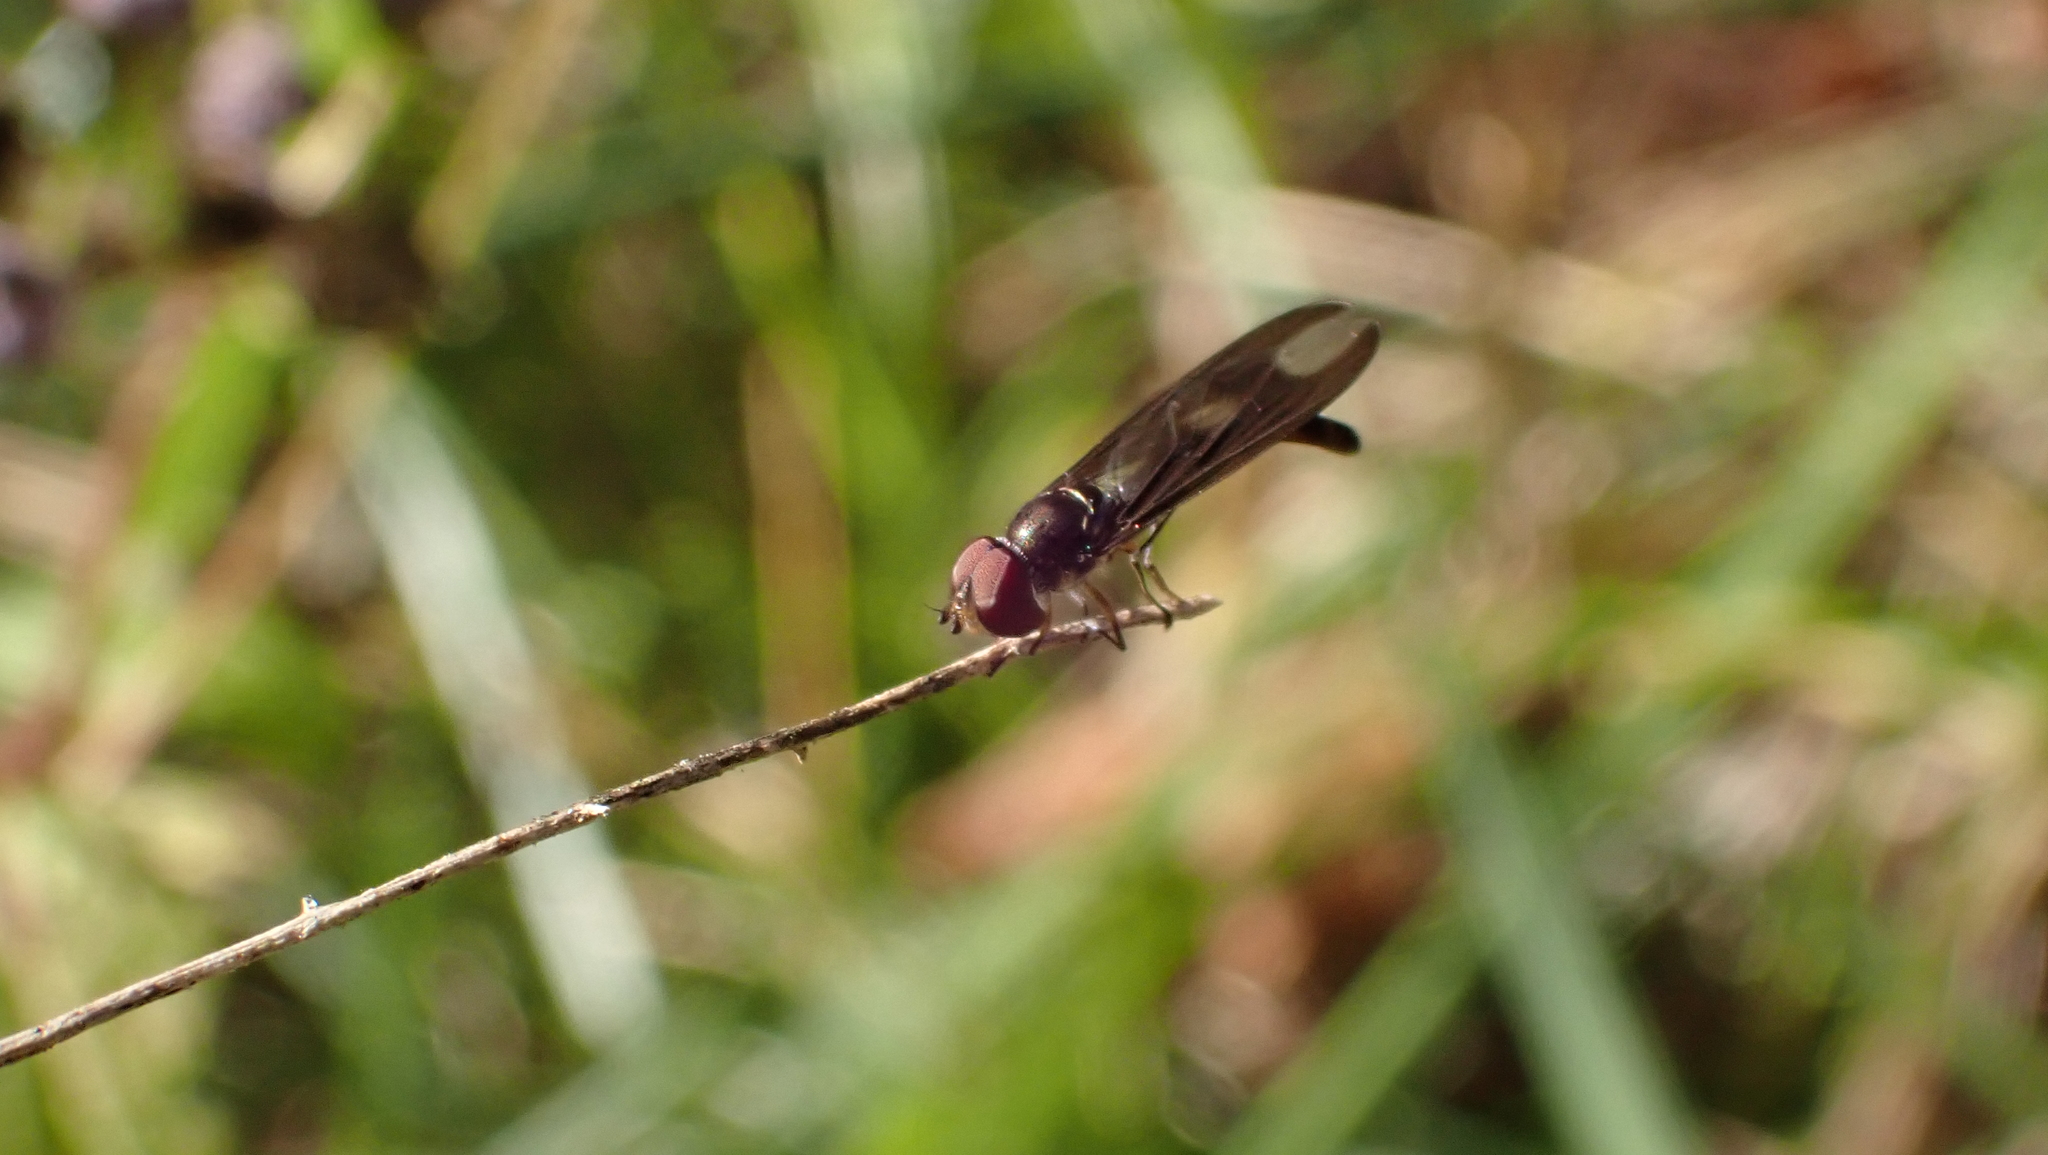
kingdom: Animalia
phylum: Arthropoda
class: Insecta
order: Diptera
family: Syrphidae
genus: Ocyptamus
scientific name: Ocyptamus fuscipennis
